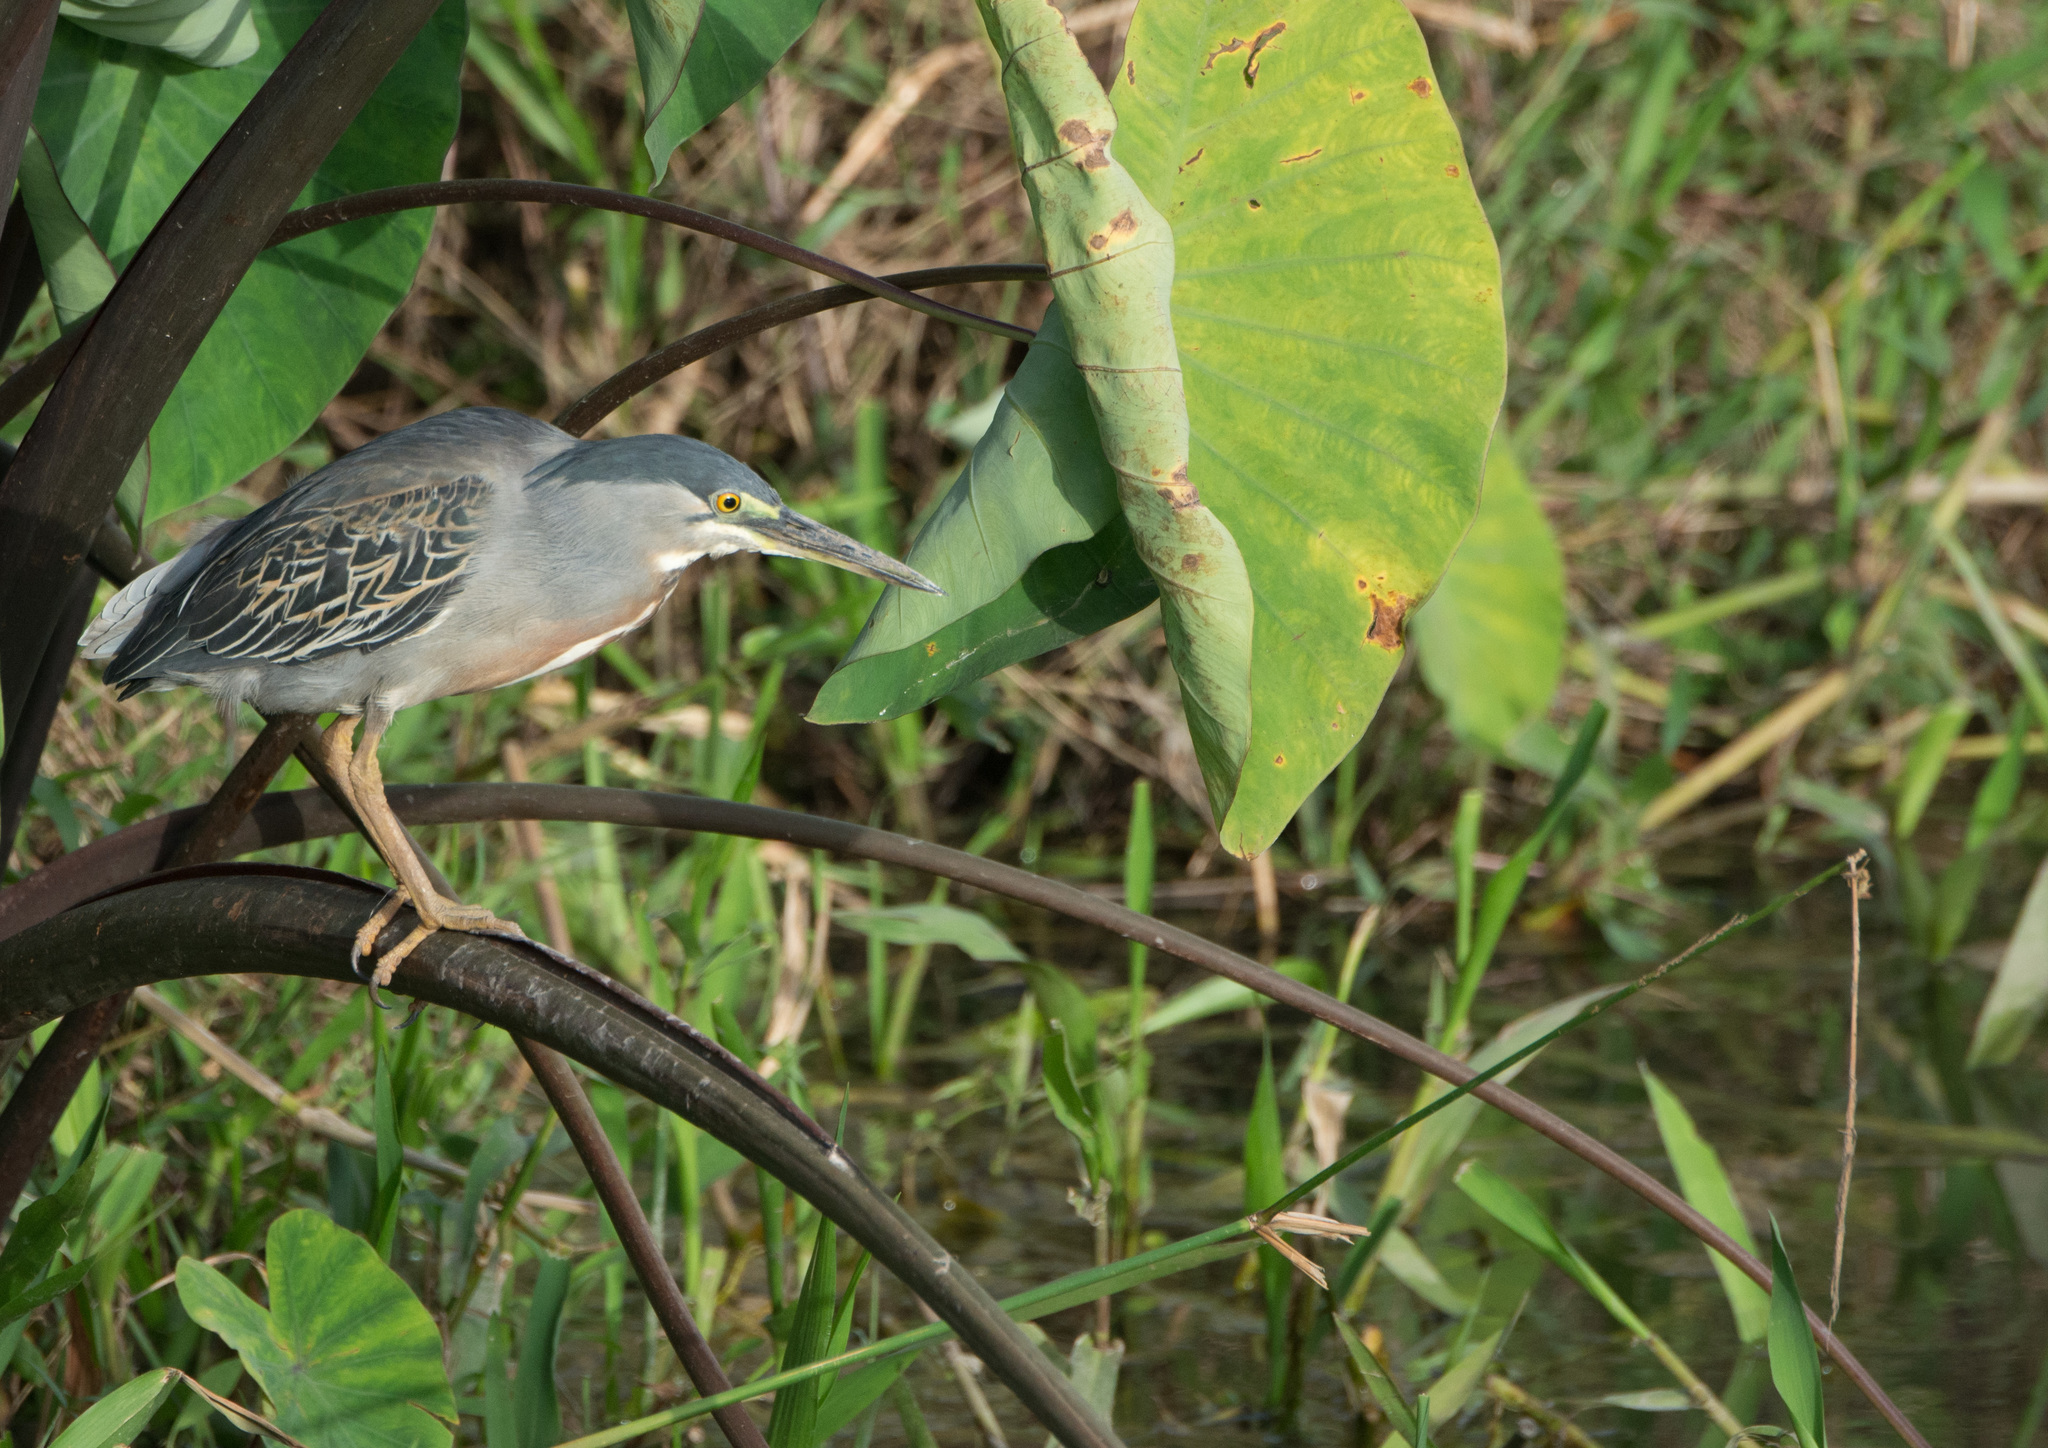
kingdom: Animalia
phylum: Chordata
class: Aves
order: Pelecaniformes
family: Ardeidae
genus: Butorides
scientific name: Butorides striata
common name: Striated heron
